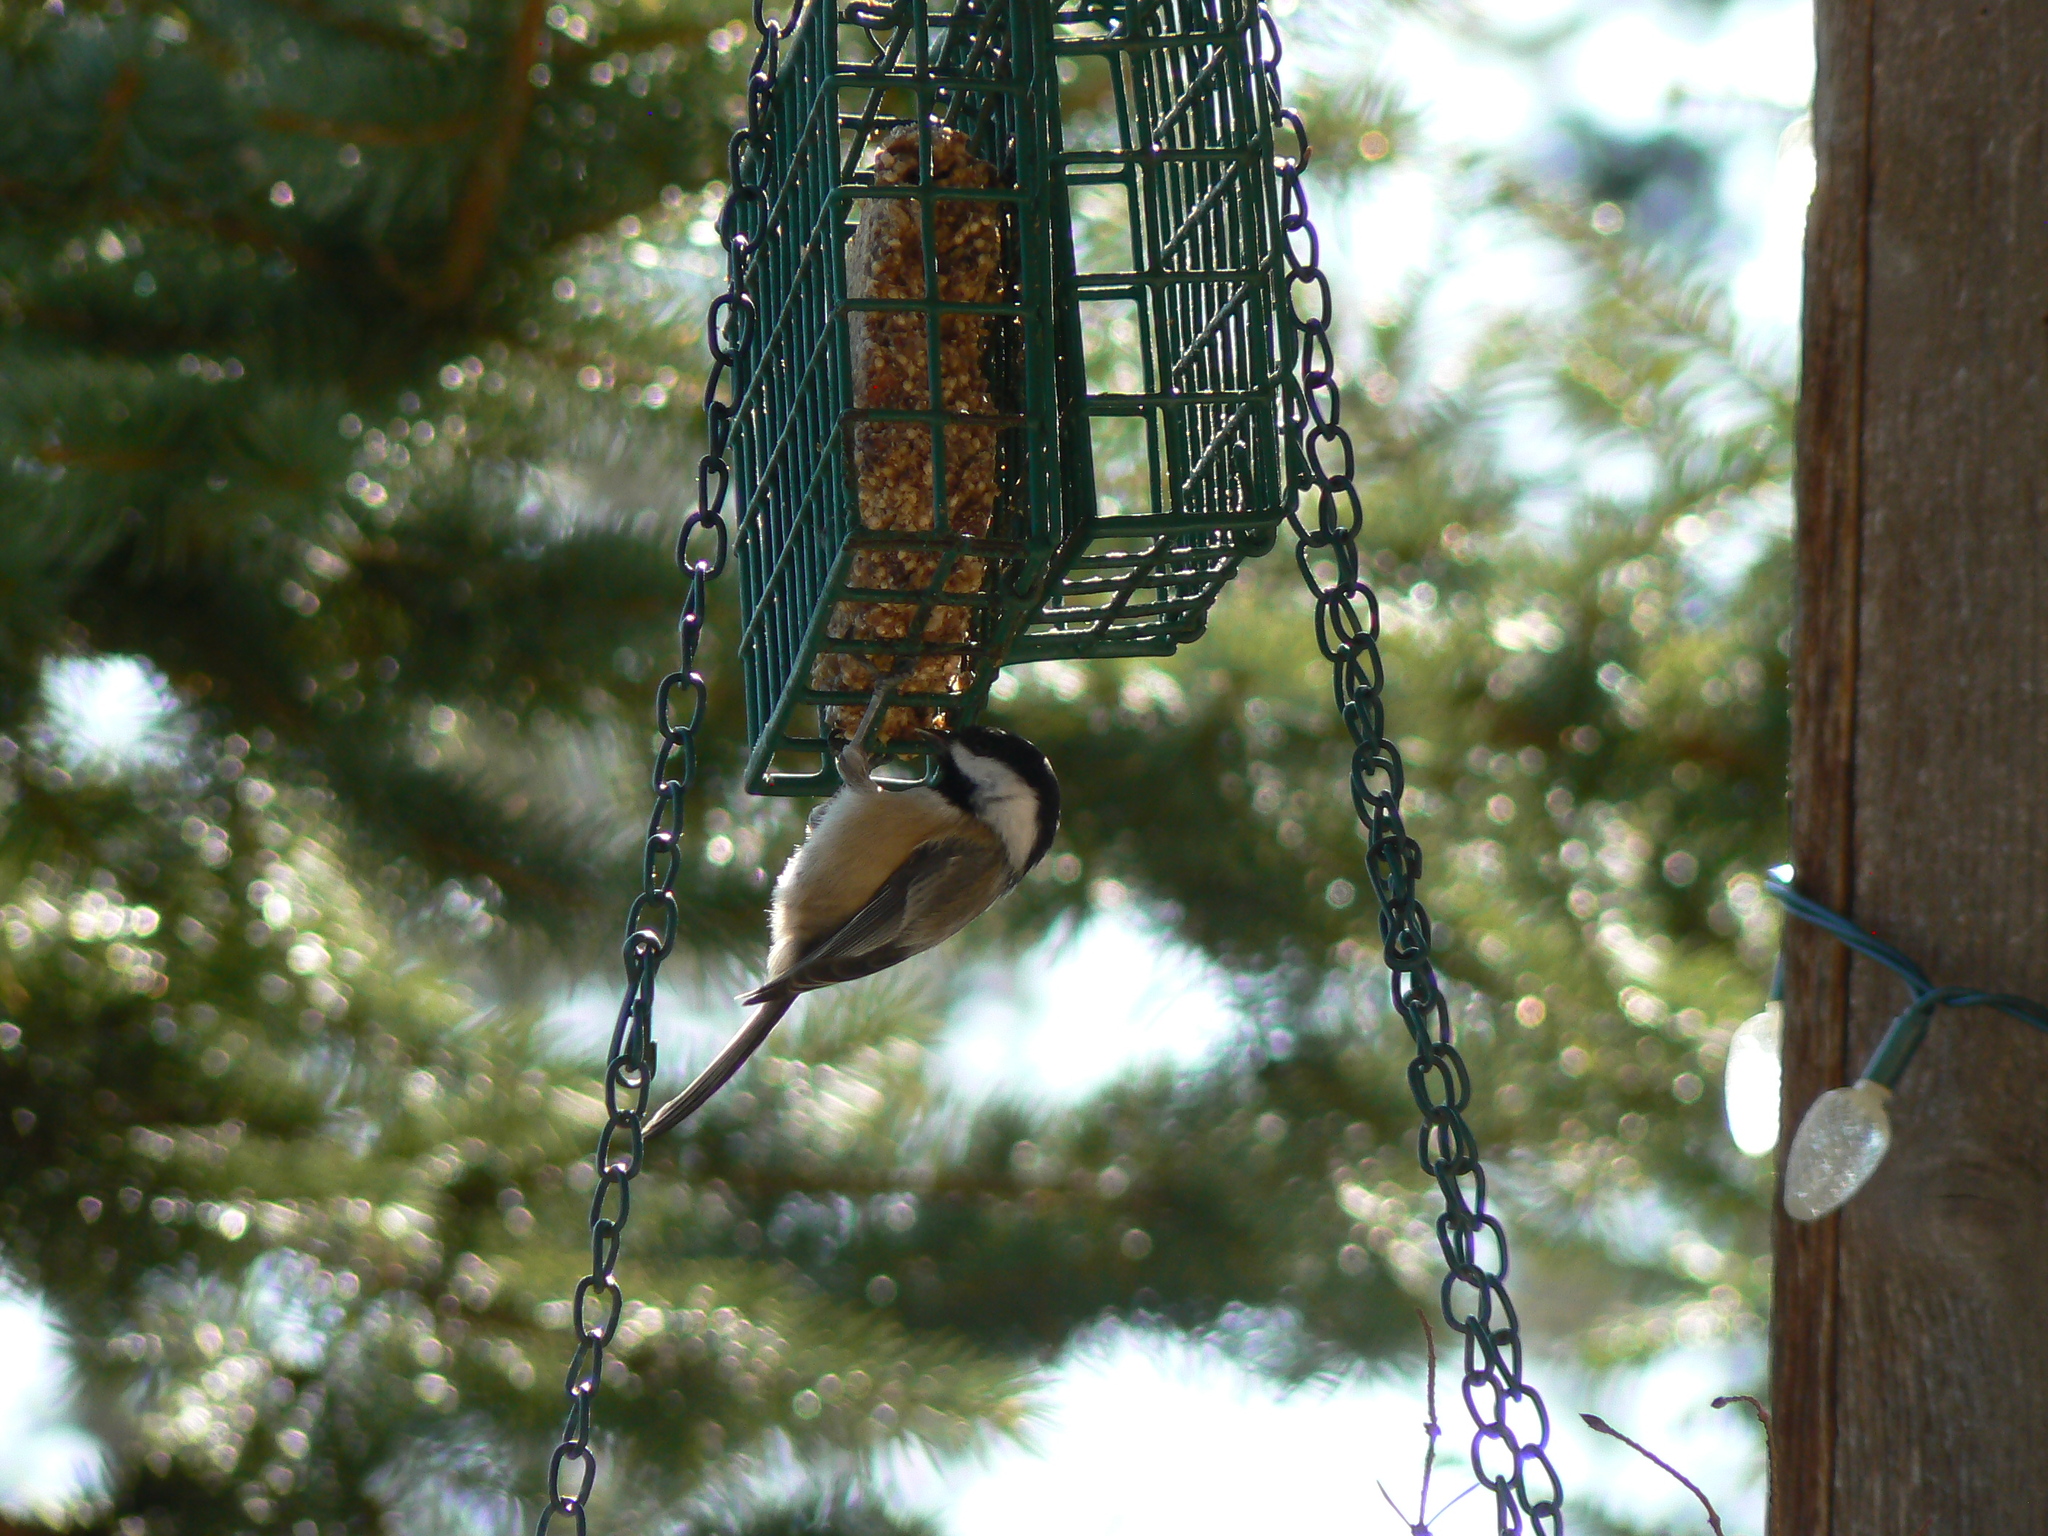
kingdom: Animalia
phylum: Chordata
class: Aves
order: Passeriformes
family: Paridae
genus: Poecile
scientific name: Poecile atricapillus
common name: Black-capped chickadee
